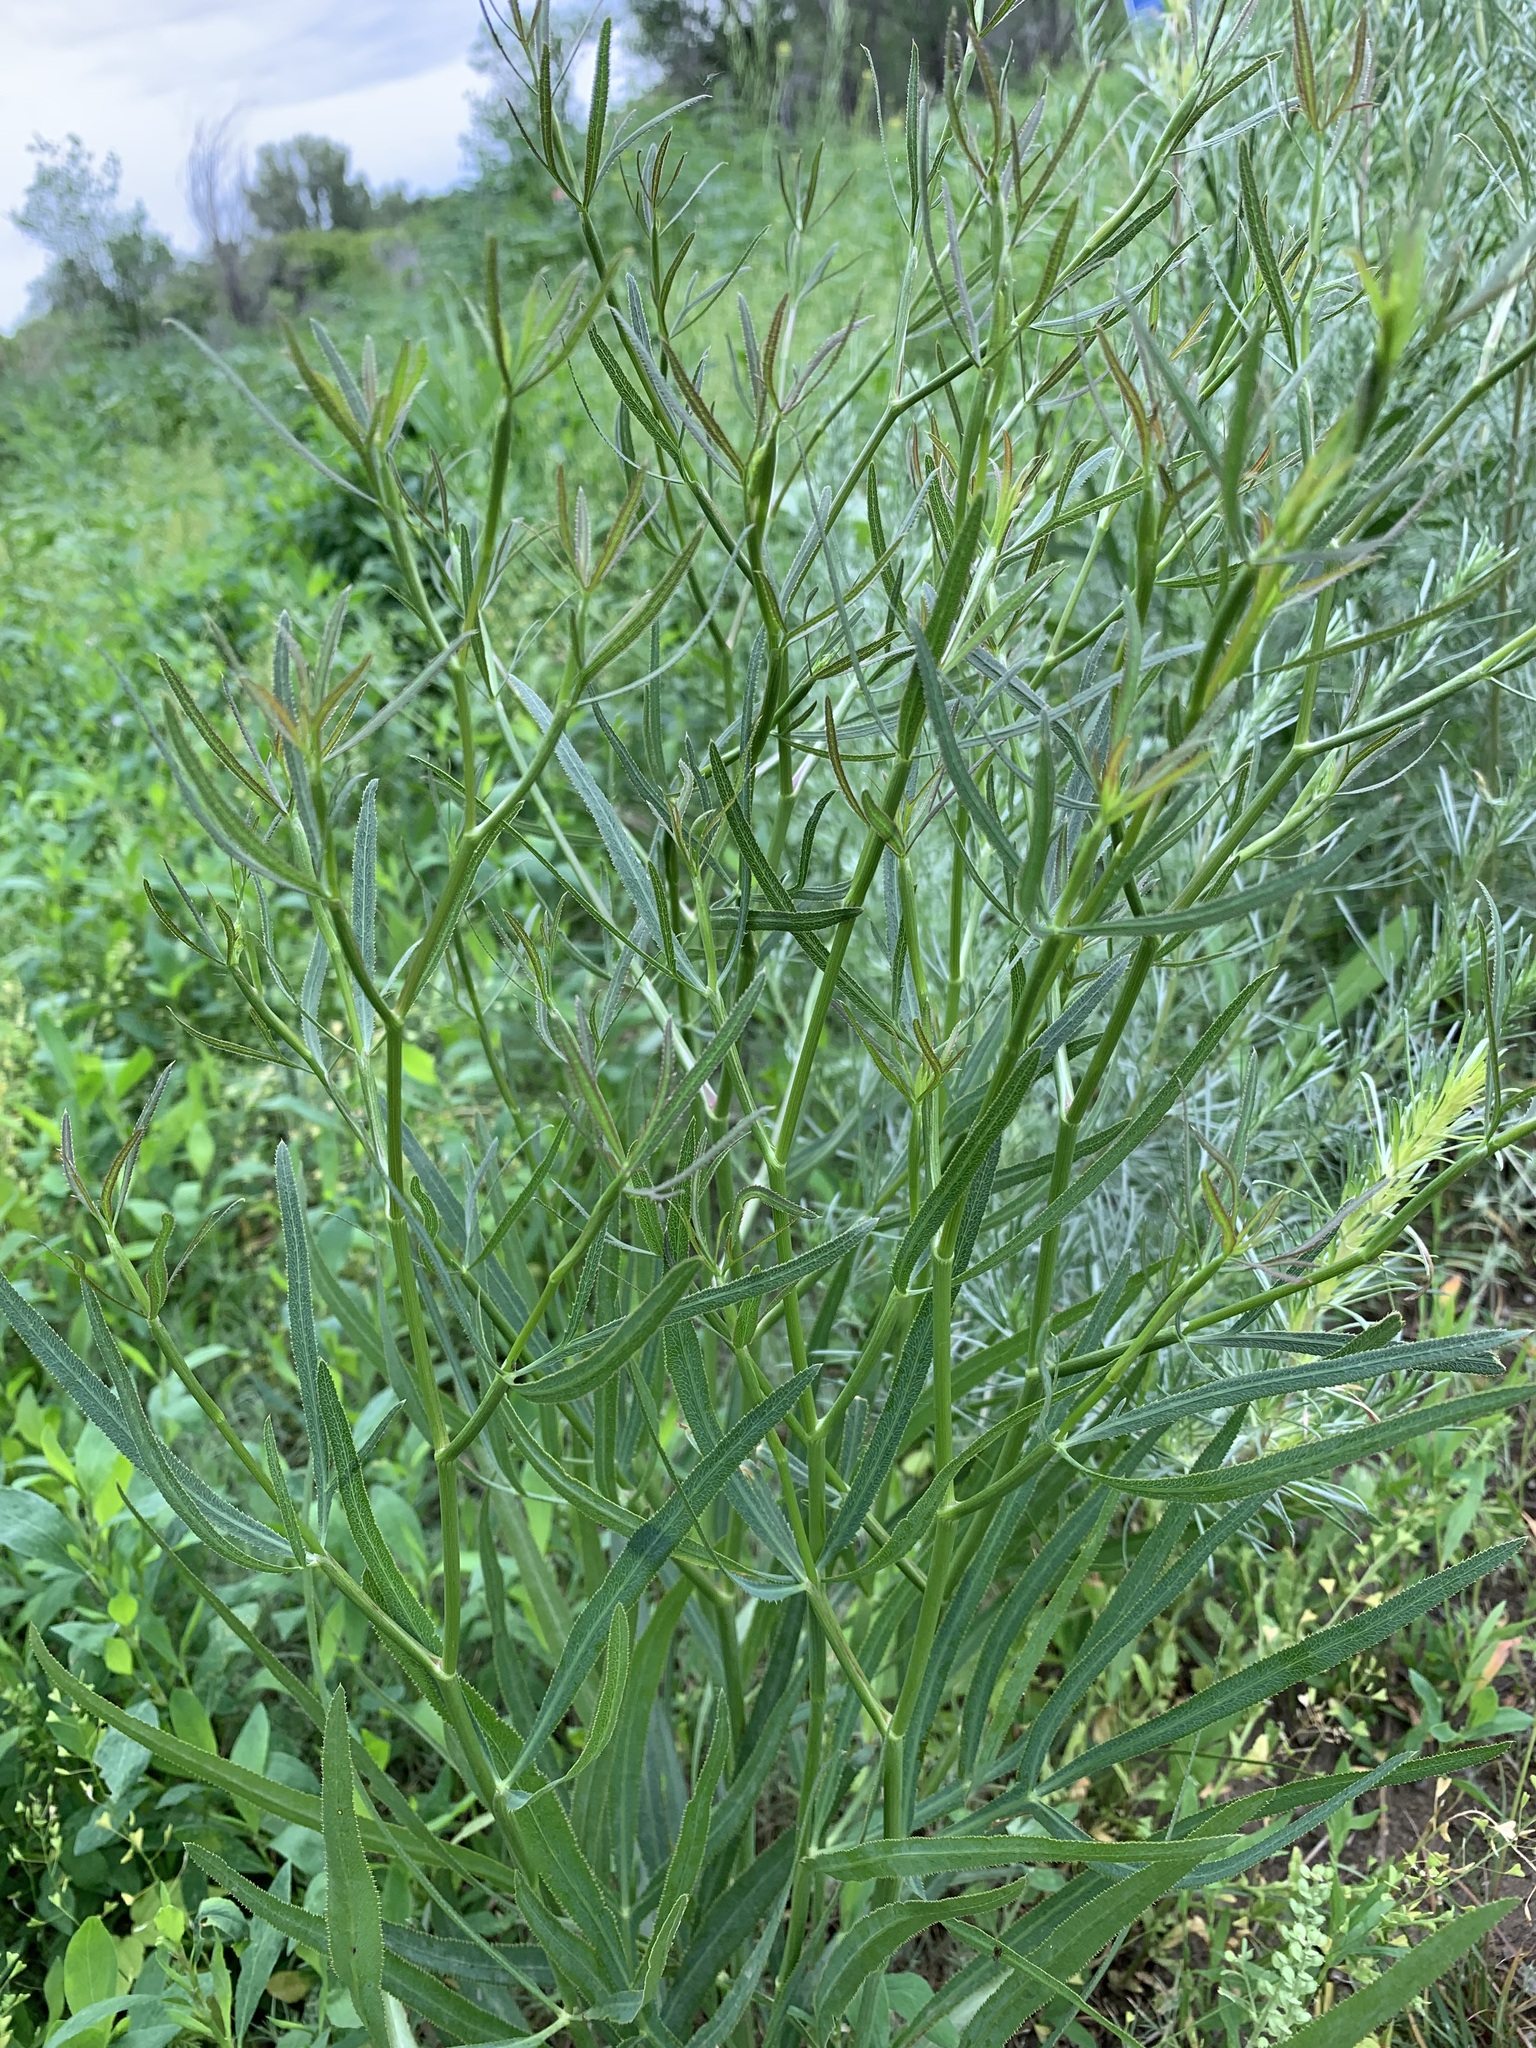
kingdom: Plantae
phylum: Tracheophyta
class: Magnoliopsida
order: Apiales
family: Apiaceae
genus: Falcaria
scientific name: Falcaria vulgaris
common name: Longleaf
